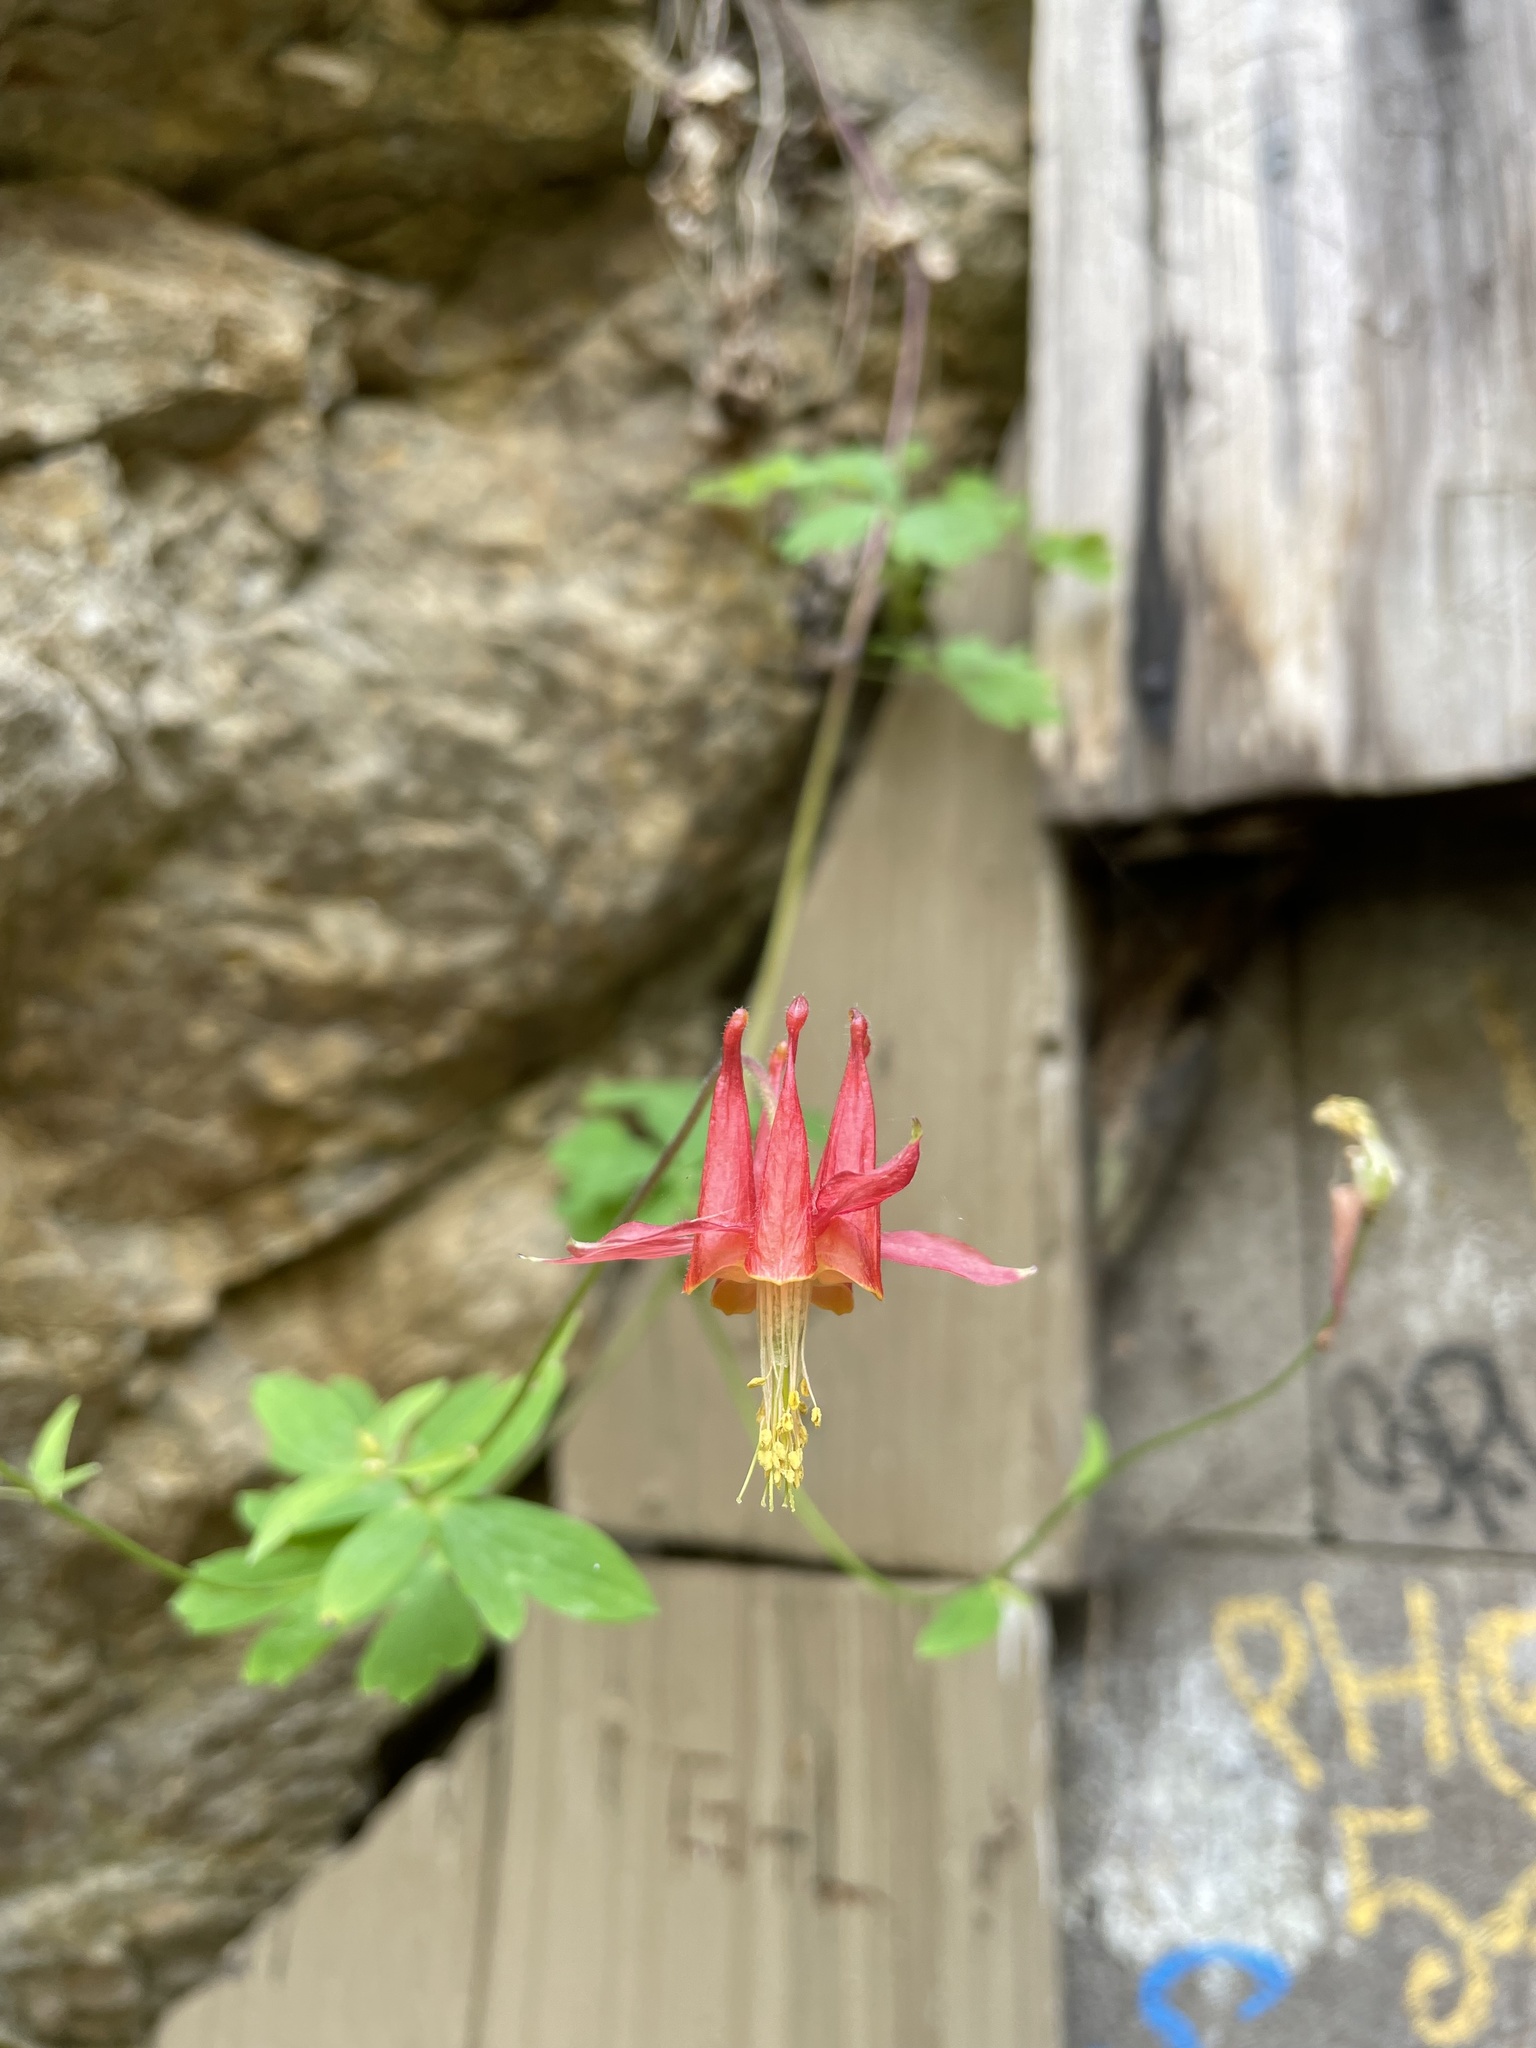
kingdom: Plantae
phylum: Tracheophyta
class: Magnoliopsida
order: Ranunculales
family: Ranunculaceae
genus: Aquilegia
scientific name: Aquilegia formosa
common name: Sitka columbine
